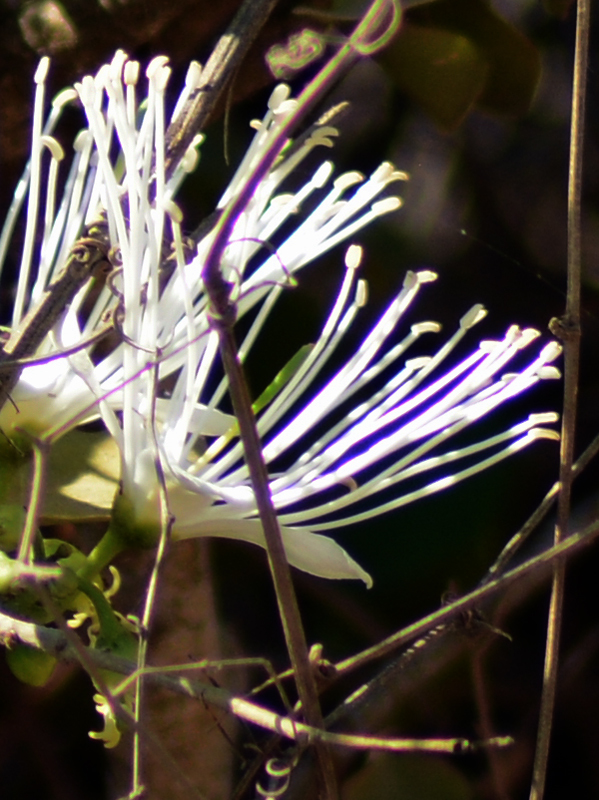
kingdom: Plantae
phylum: Tracheophyta
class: Magnoliopsida
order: Brassicales
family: Capparaceae
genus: Cynophalla
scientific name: Cynophalla flexuosa
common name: Capertree
